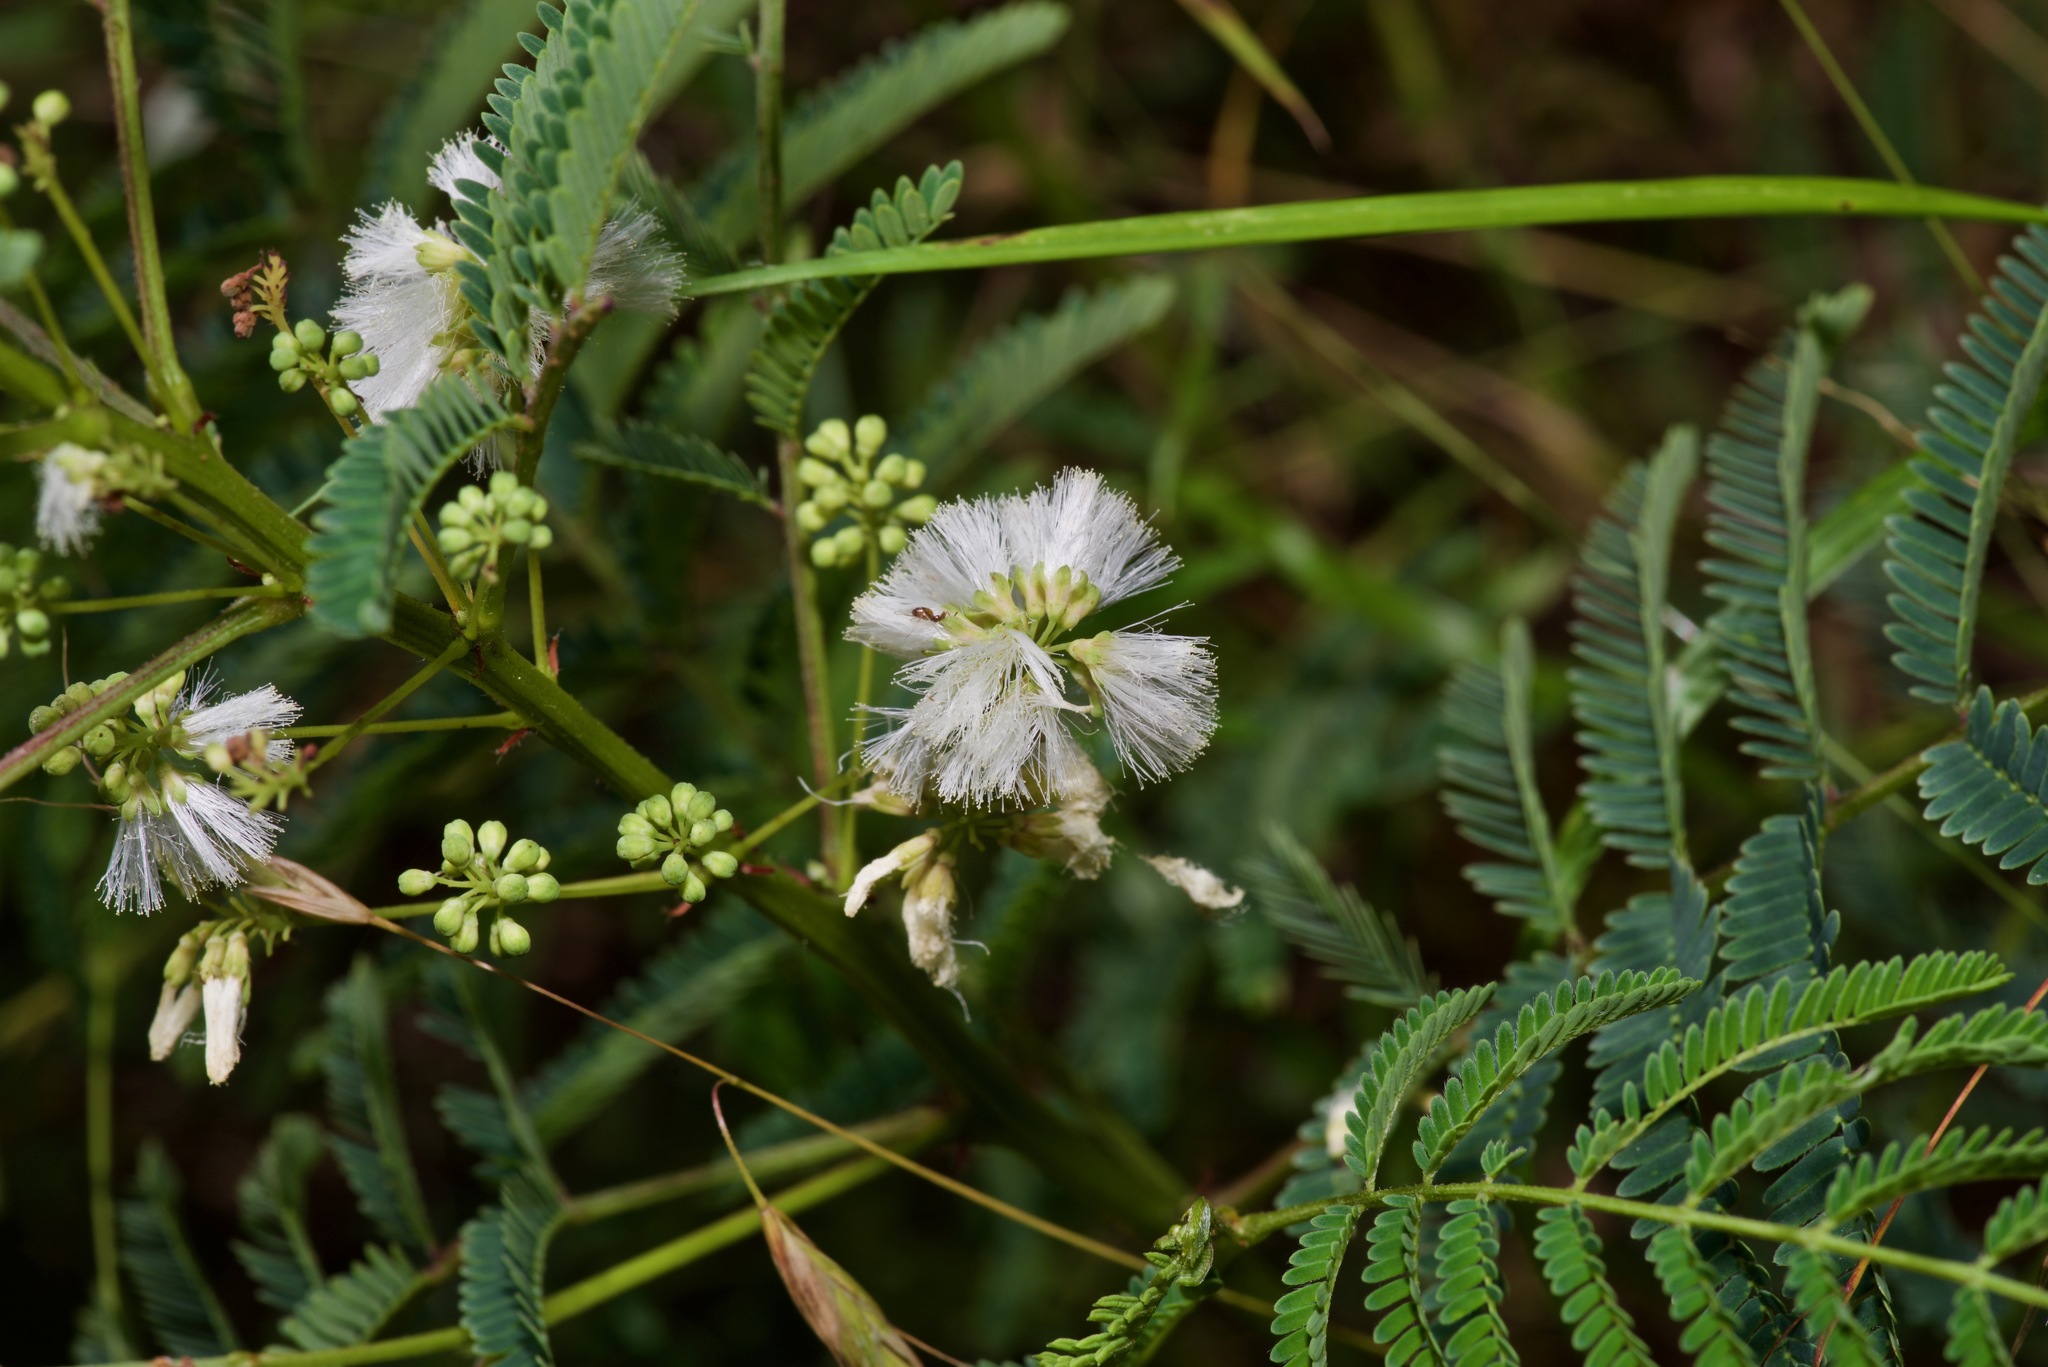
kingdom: Plantae
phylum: Tracheophyta
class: Magnoliopsida
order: Fabales
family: Fabaceae
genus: Acaciella
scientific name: Acaciella angustissima
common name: Prairie acacia
